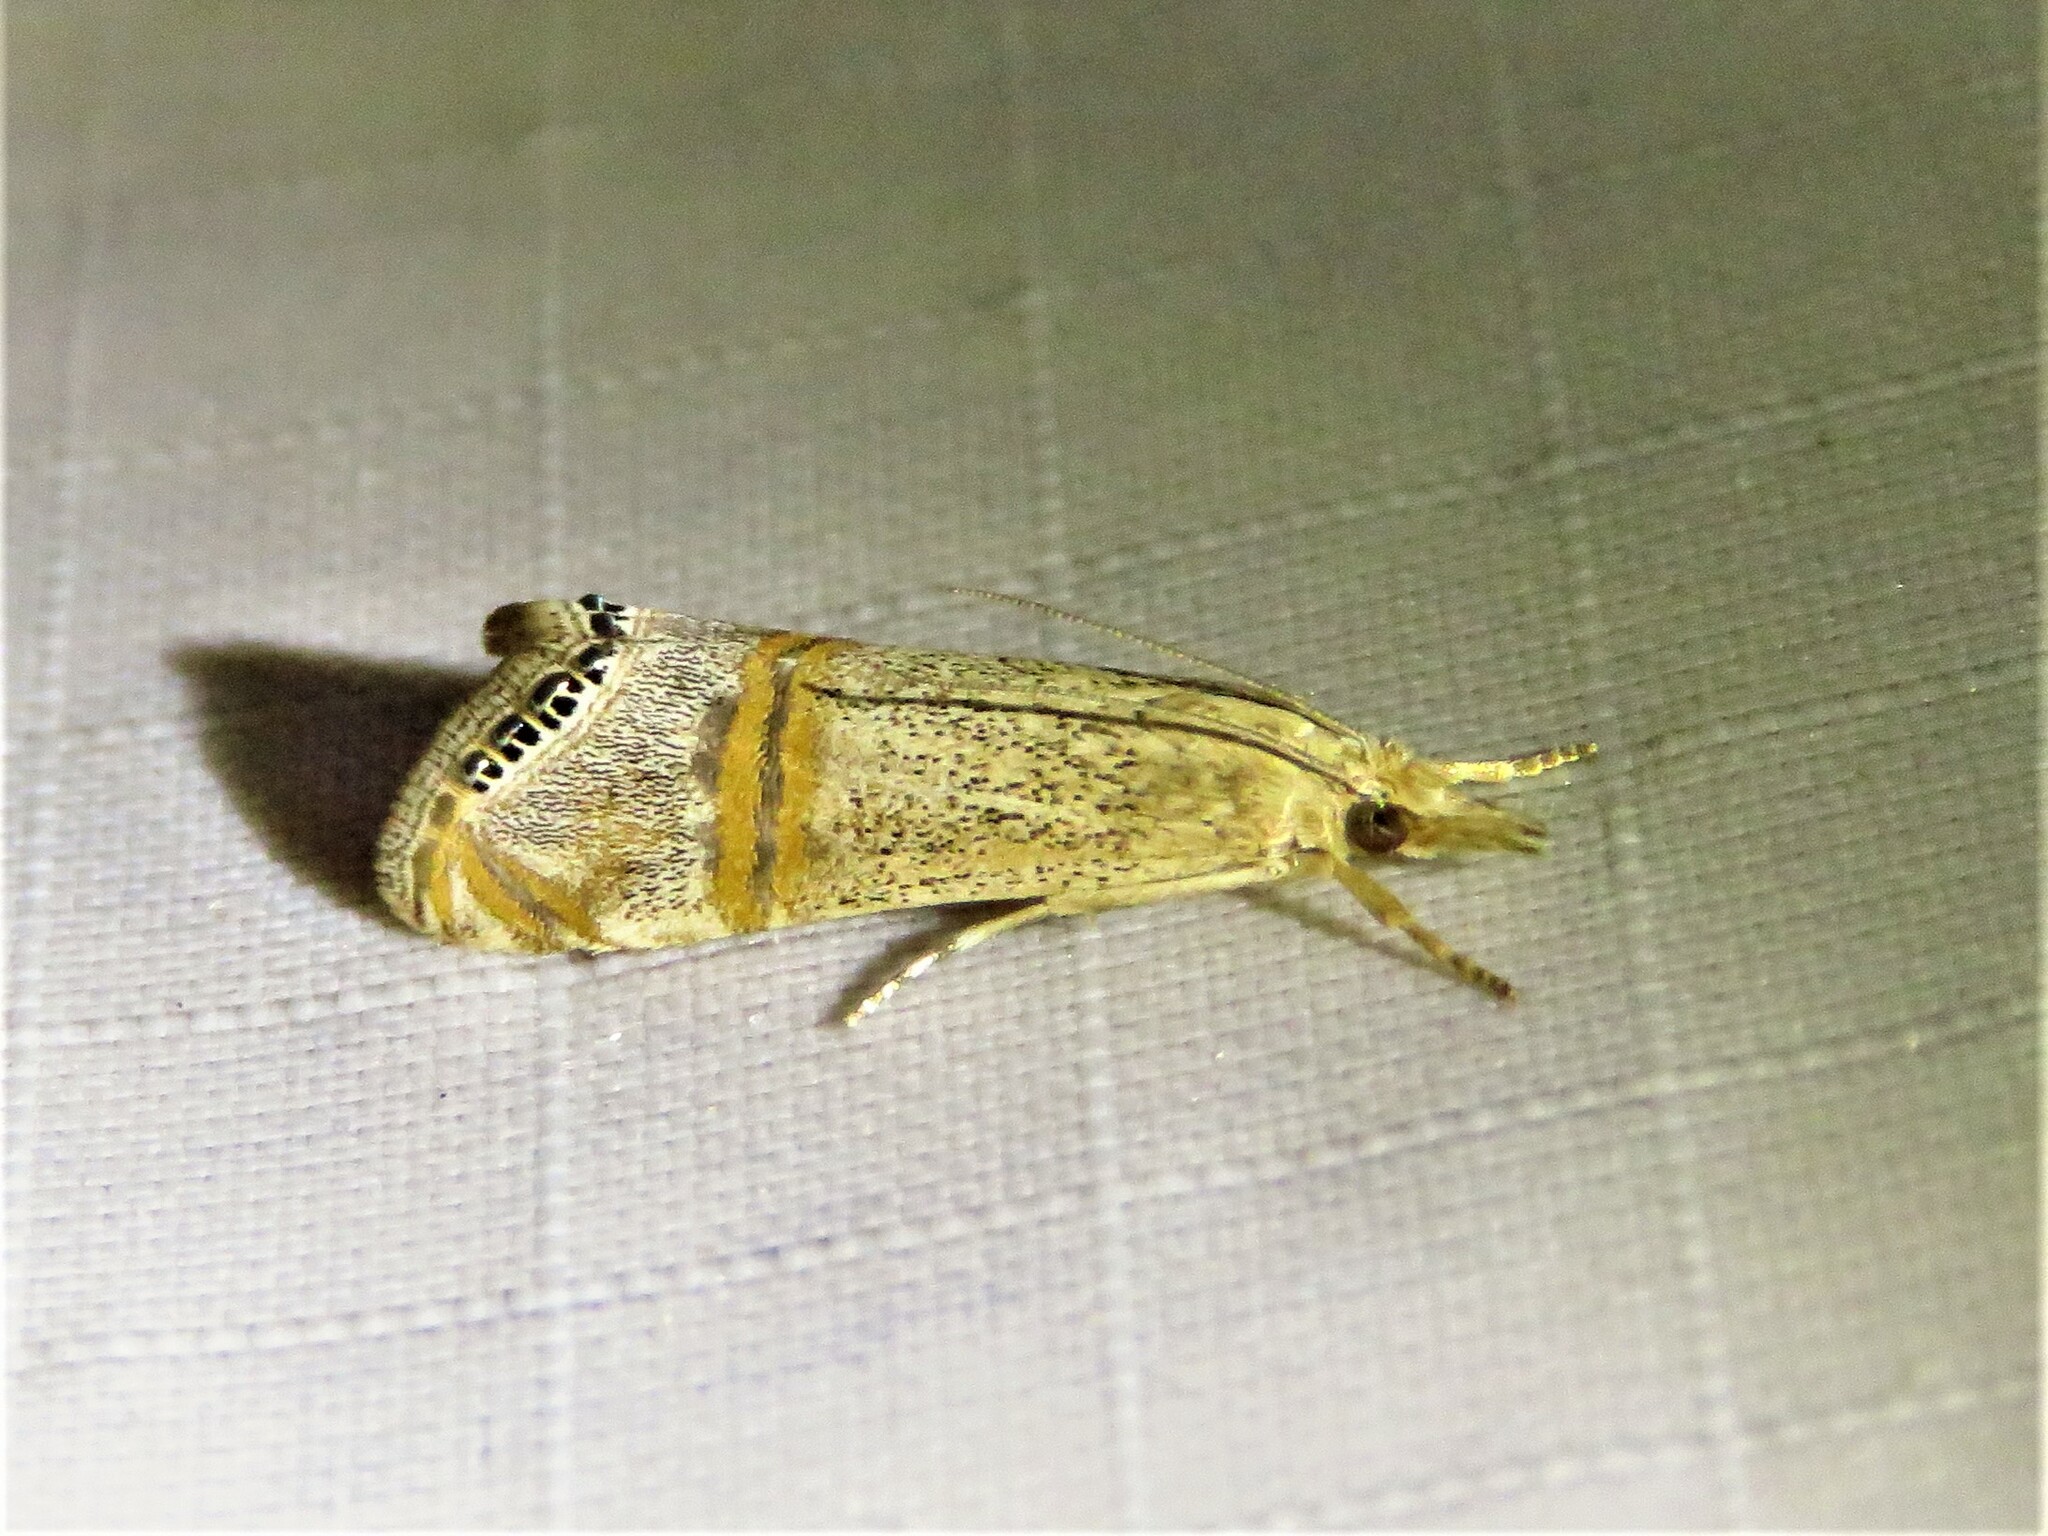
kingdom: Animalia
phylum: Arthropoda
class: Insecta
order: Lepidoptera
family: Crambidae
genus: Euchromius
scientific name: Euchromius ocellea
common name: Necklace veneer moth
